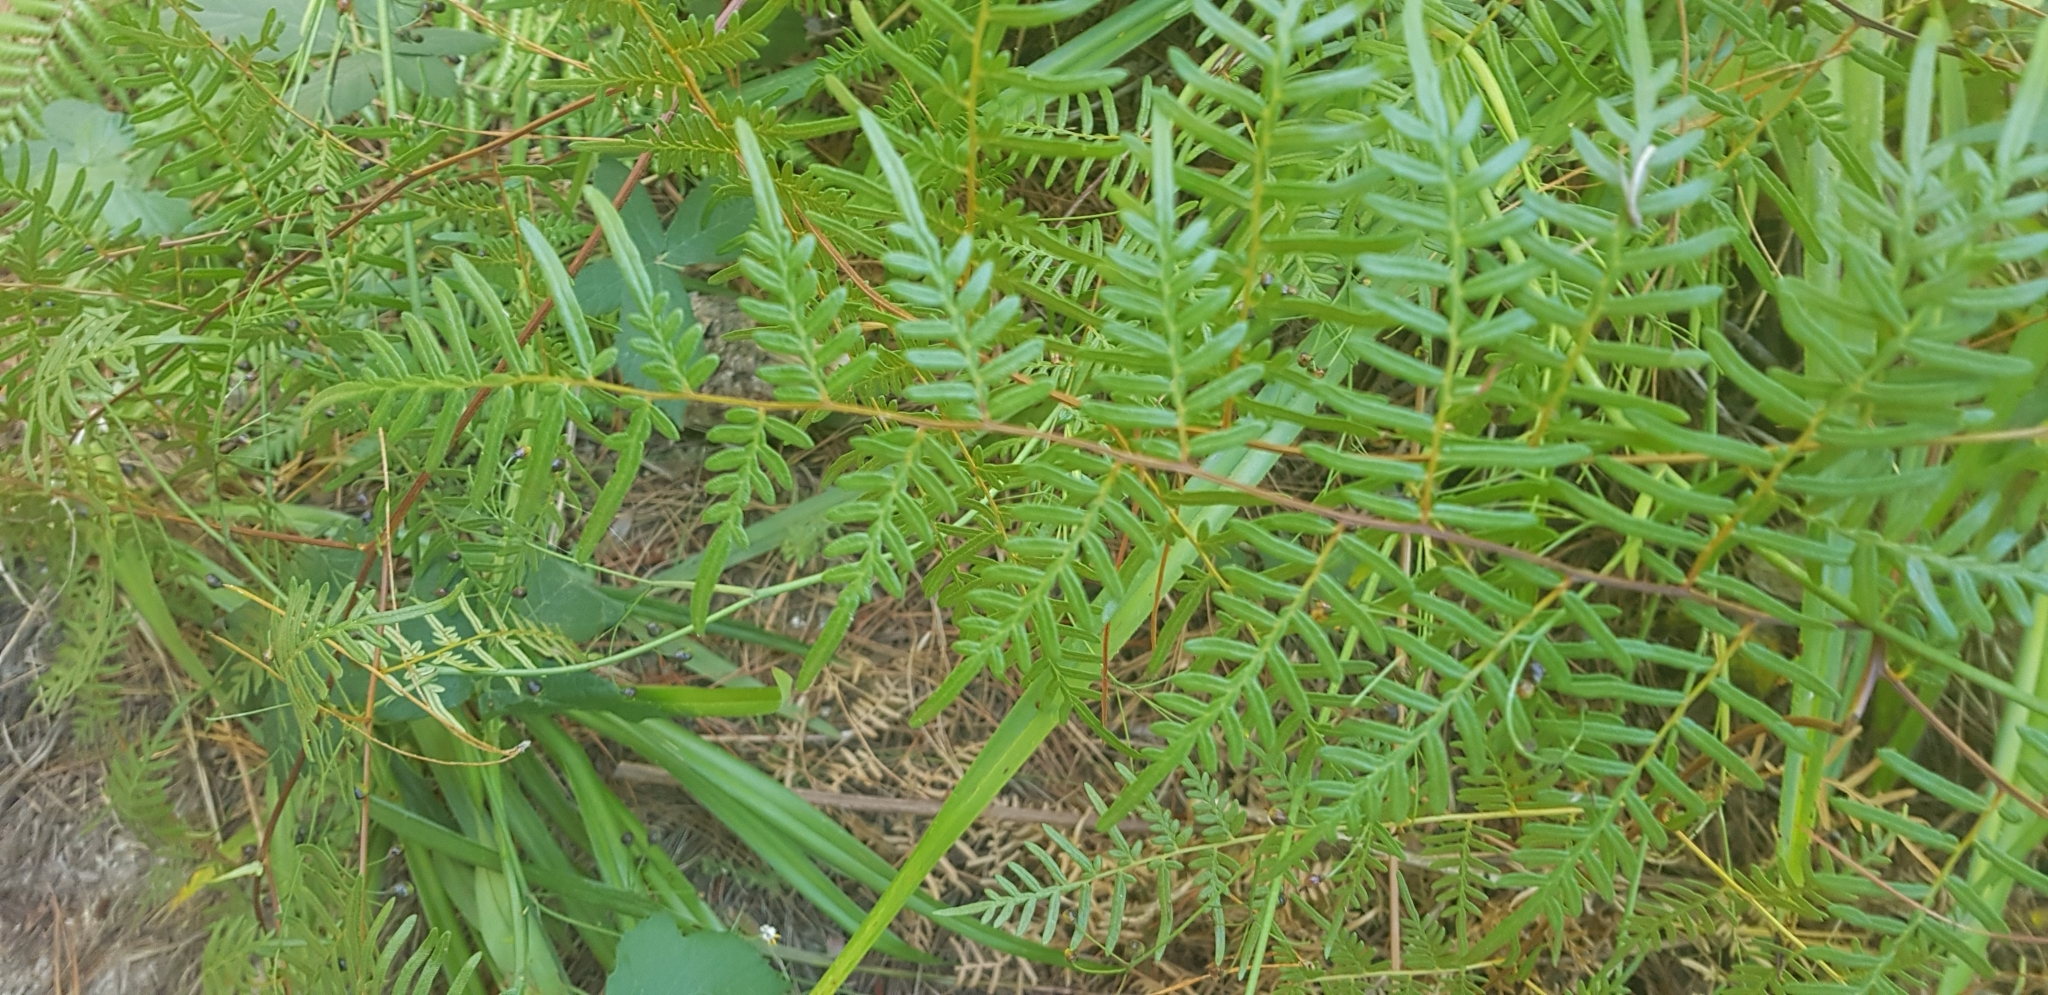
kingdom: Plantae
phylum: Tracheophyta
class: Polypodiopsida
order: Polypodiales
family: Dennstaedtiaceae
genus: Pteridium
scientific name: Pteridium esculentum
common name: Bracken fern
